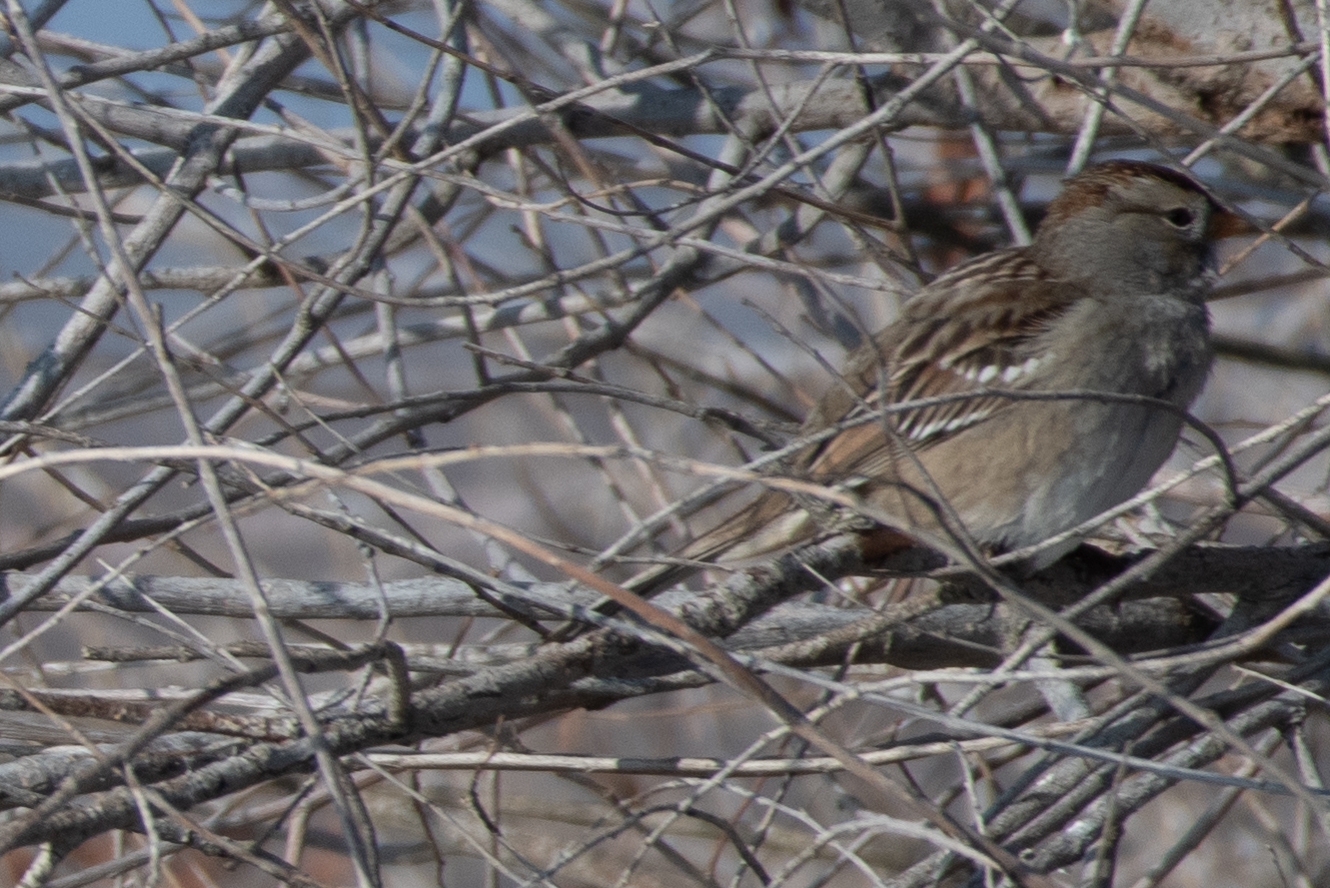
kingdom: Animalia
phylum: Chordata
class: Aves
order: Passeriformes
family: Passerellidae
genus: Zonotrichia
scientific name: Zonotrichia leucophrys
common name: White-crowned sparrow
